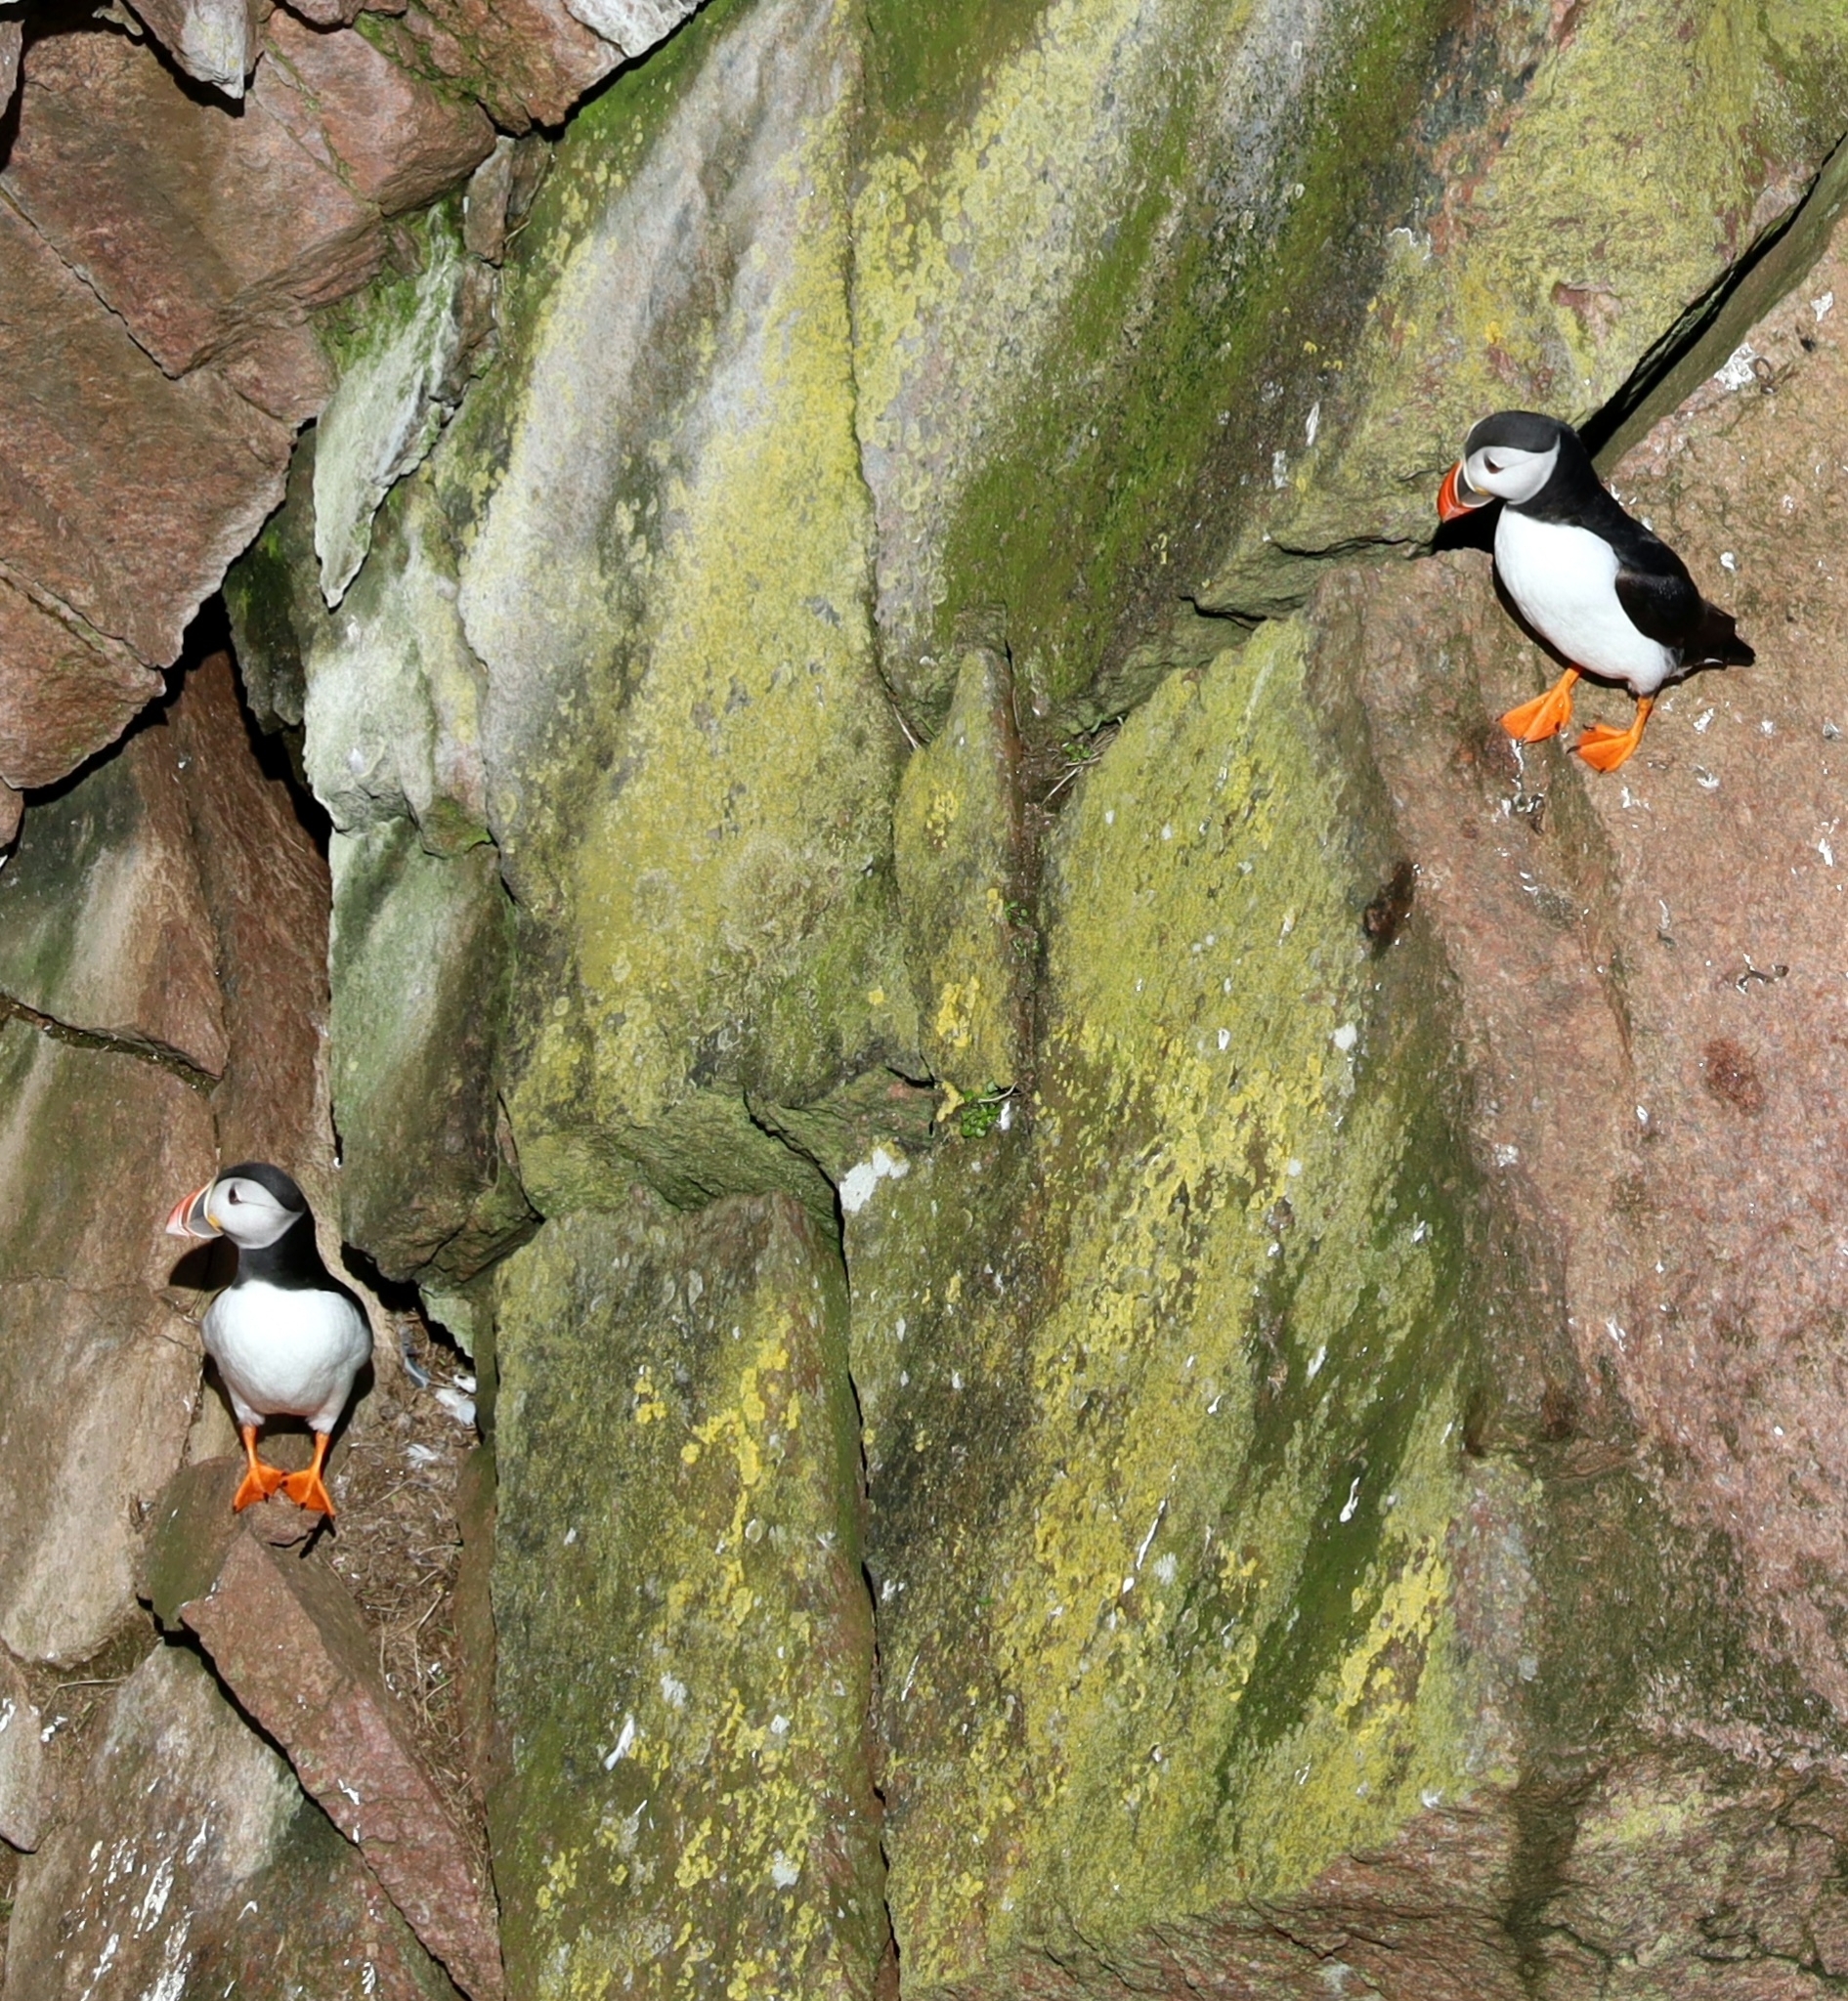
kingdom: Animalia
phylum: Chordata
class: Aves
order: Charadriiformes
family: Alcidae
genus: Fratercula
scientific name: Fratercula arctica
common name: Atlantic puffin
